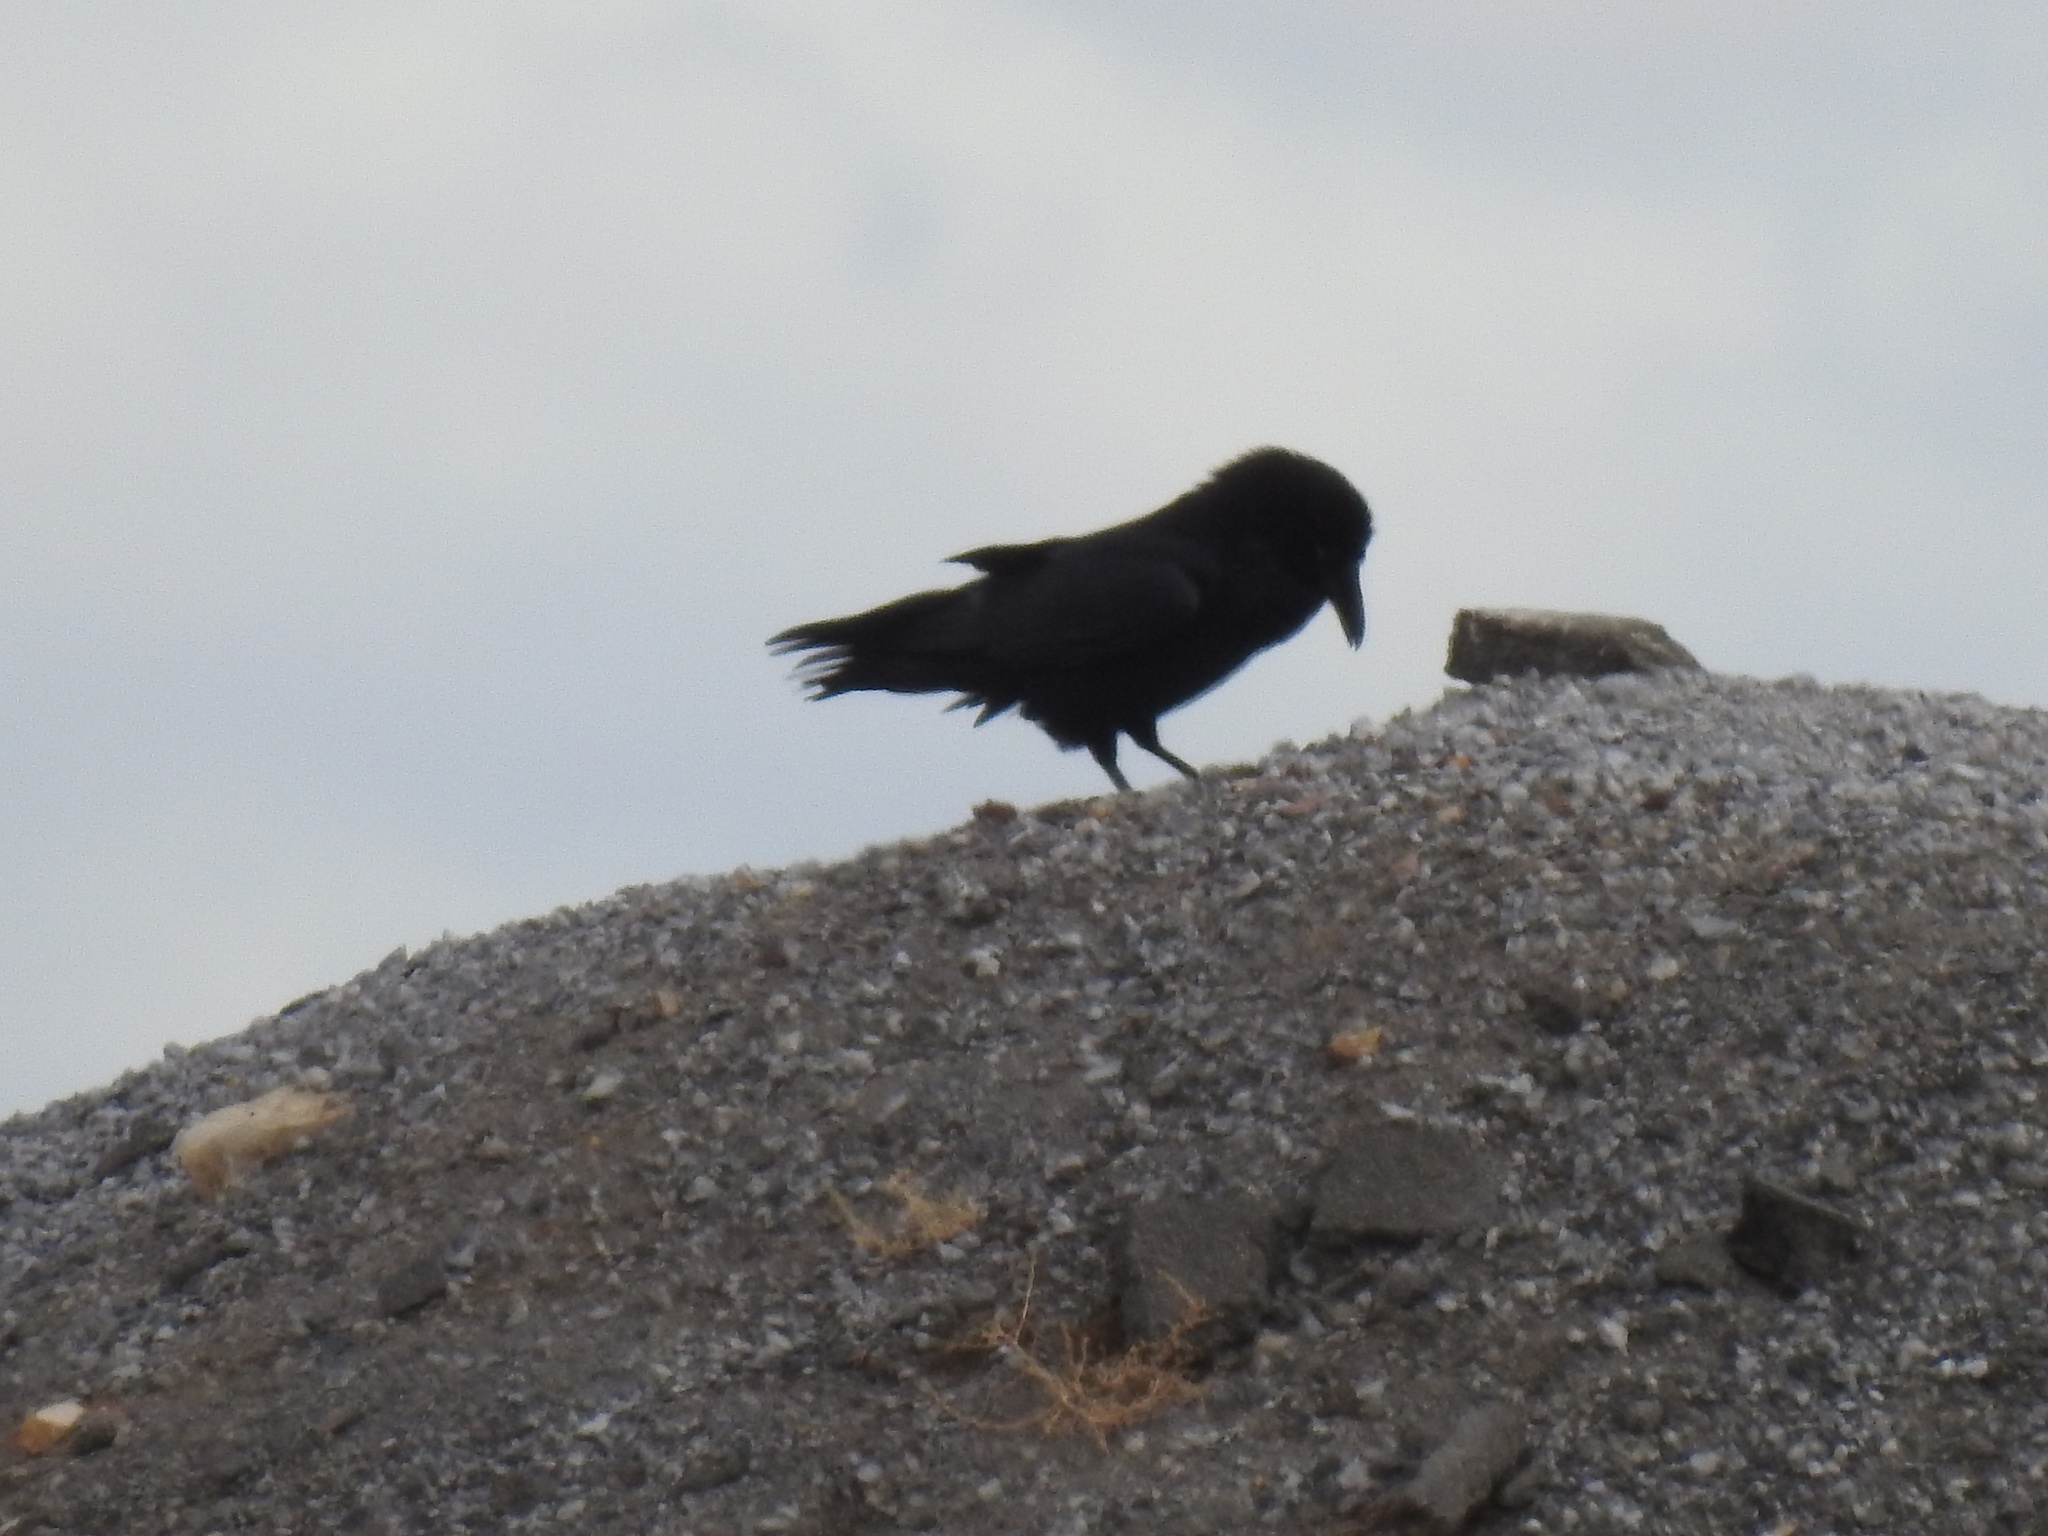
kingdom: Animalia
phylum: Chordata
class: Aves
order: Passeriformes
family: Corvidae
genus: Corvus
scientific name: Corvus corax
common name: Common raven
